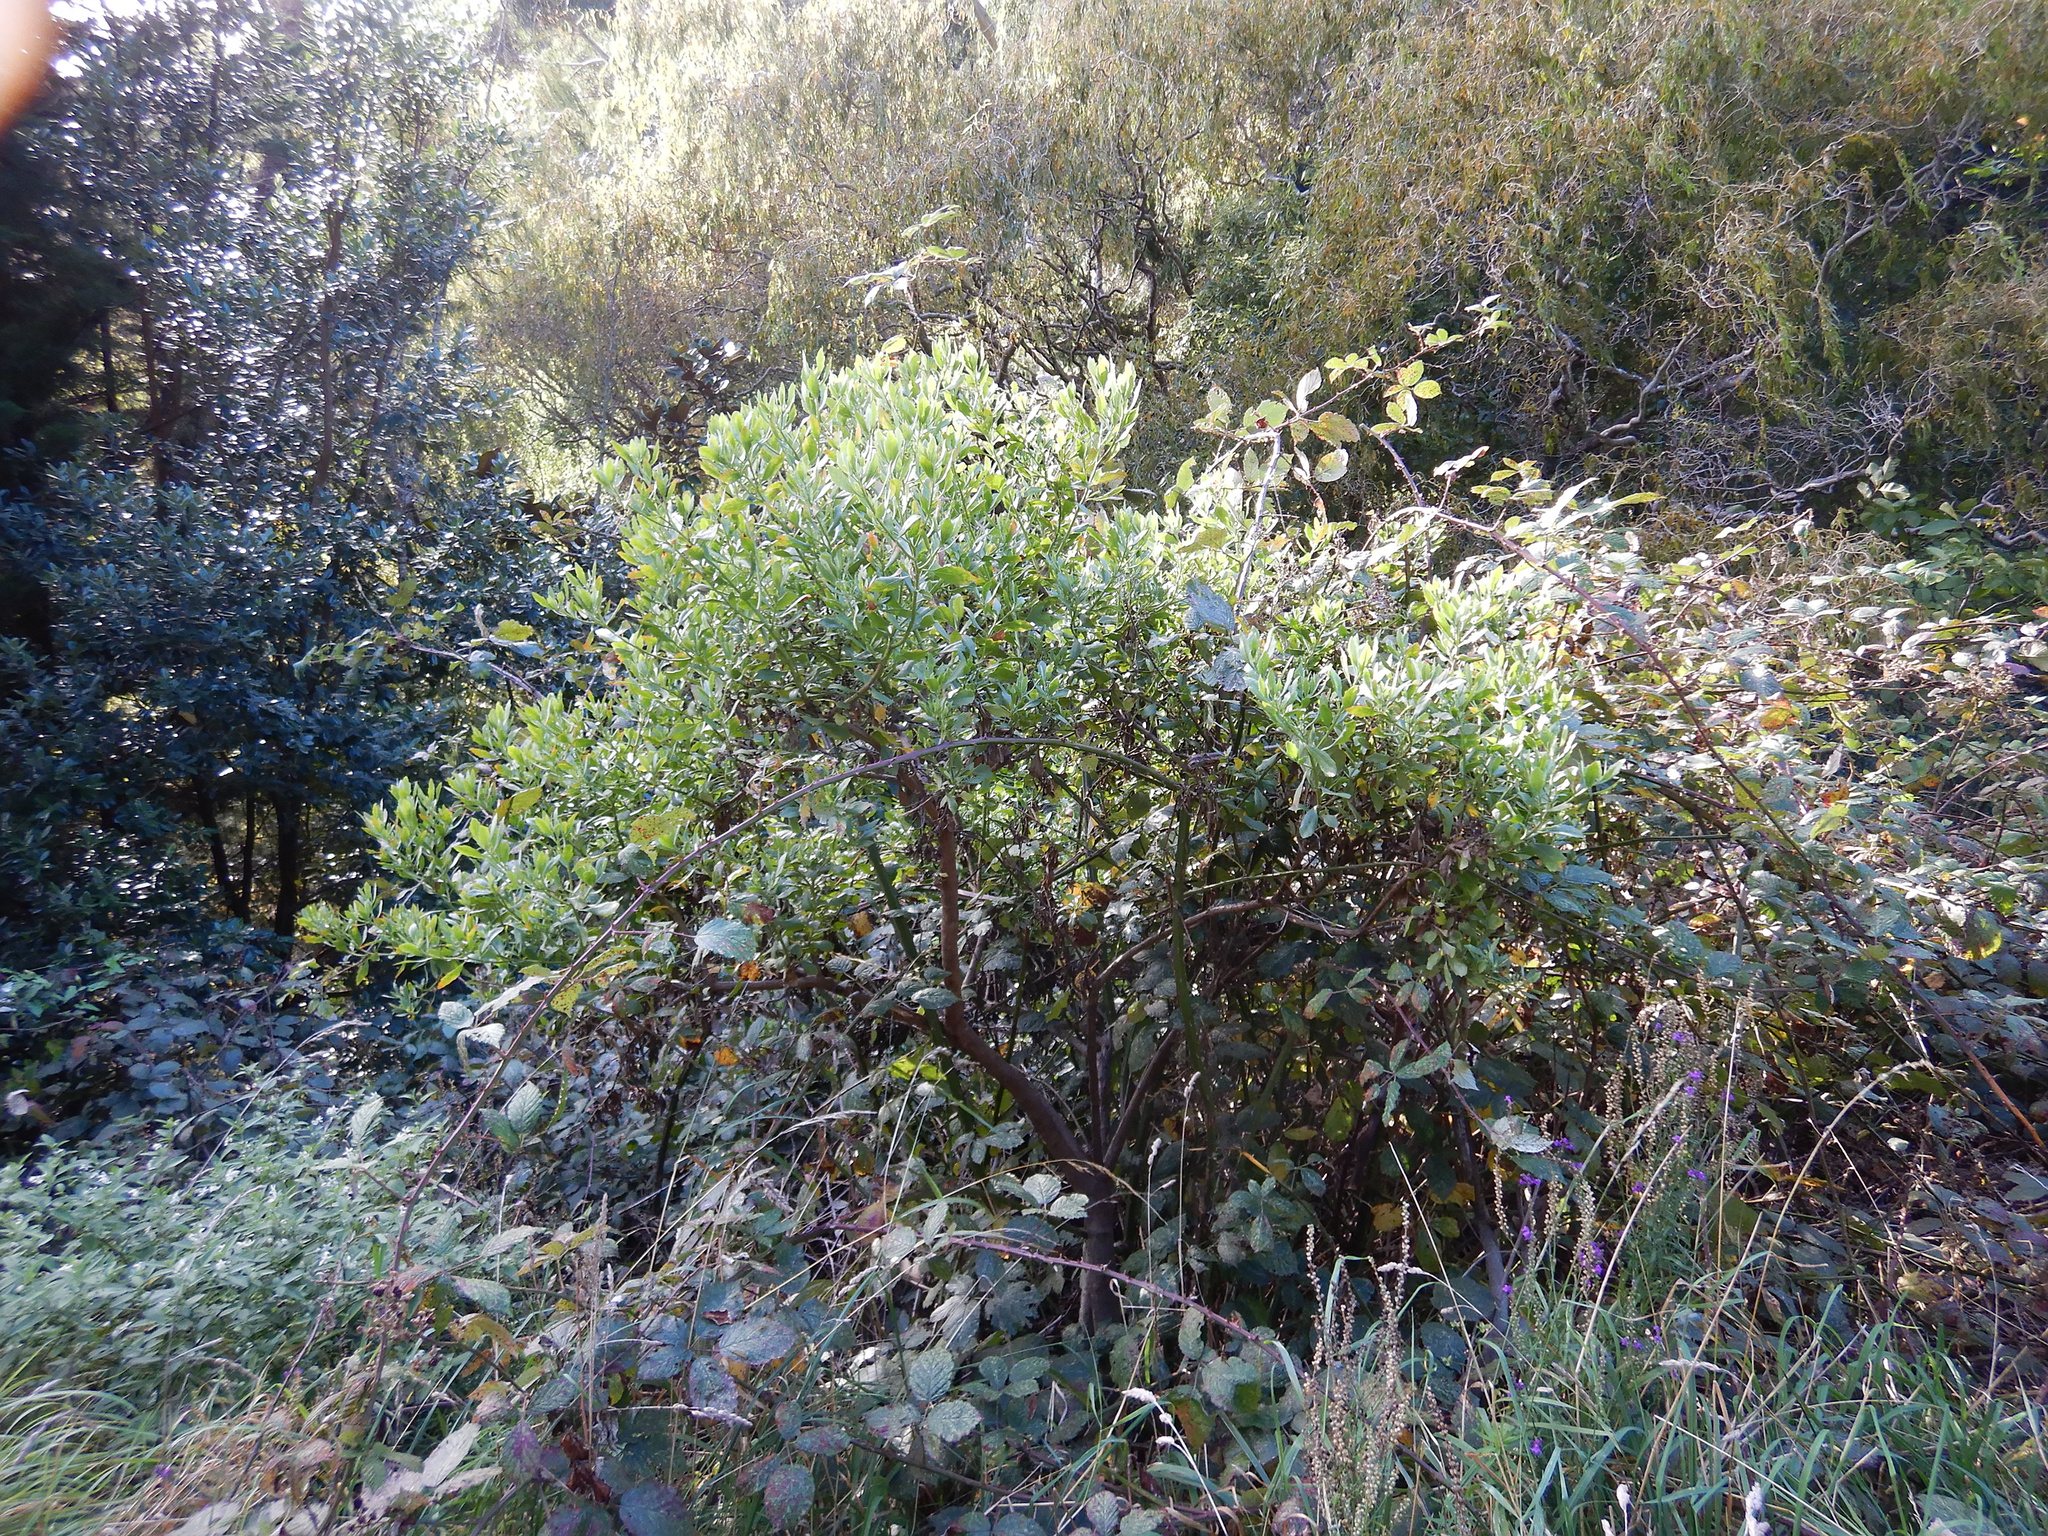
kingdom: Plantae
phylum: Tracheophyta
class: Magnoliopsida
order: Asterales
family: Asteraceae
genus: Osteospermum
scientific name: Osteospermum moniliferum
